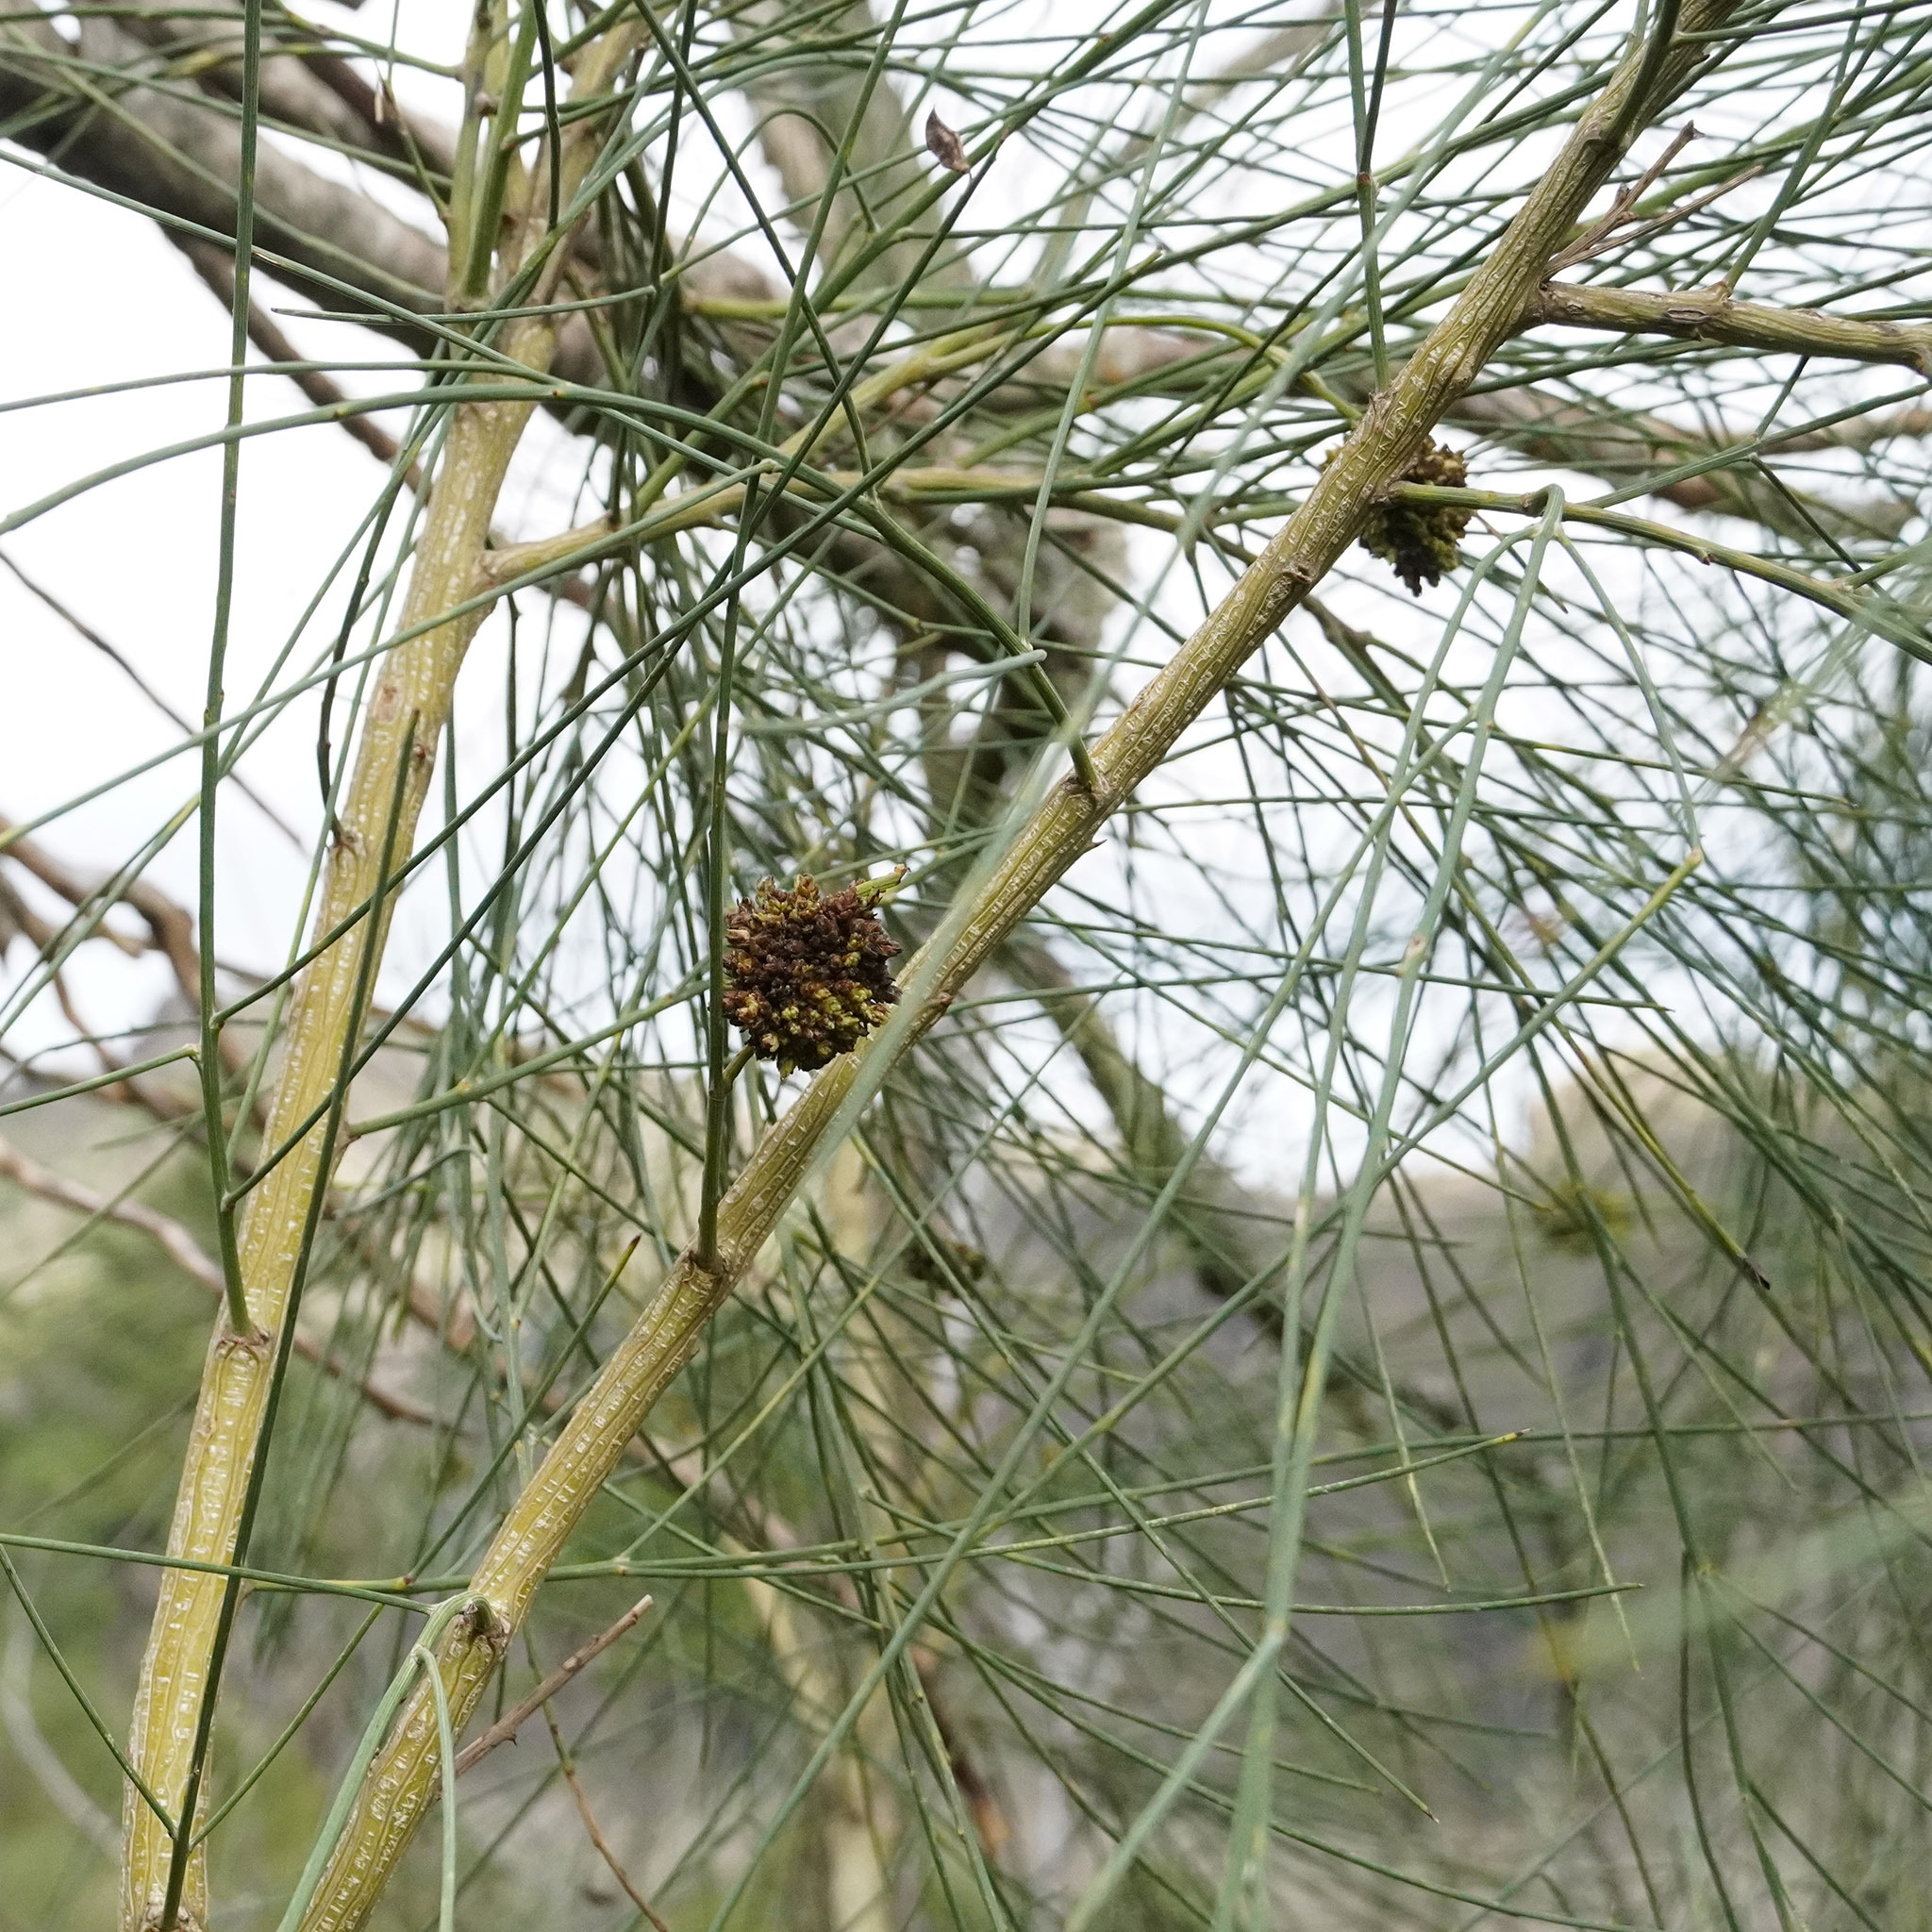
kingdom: Plantae
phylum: Tracheophyta
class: Magnoliopsida
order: Fabales
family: Fabaceae
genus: Genista
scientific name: Genista aetnensis
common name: Mount etna broom
